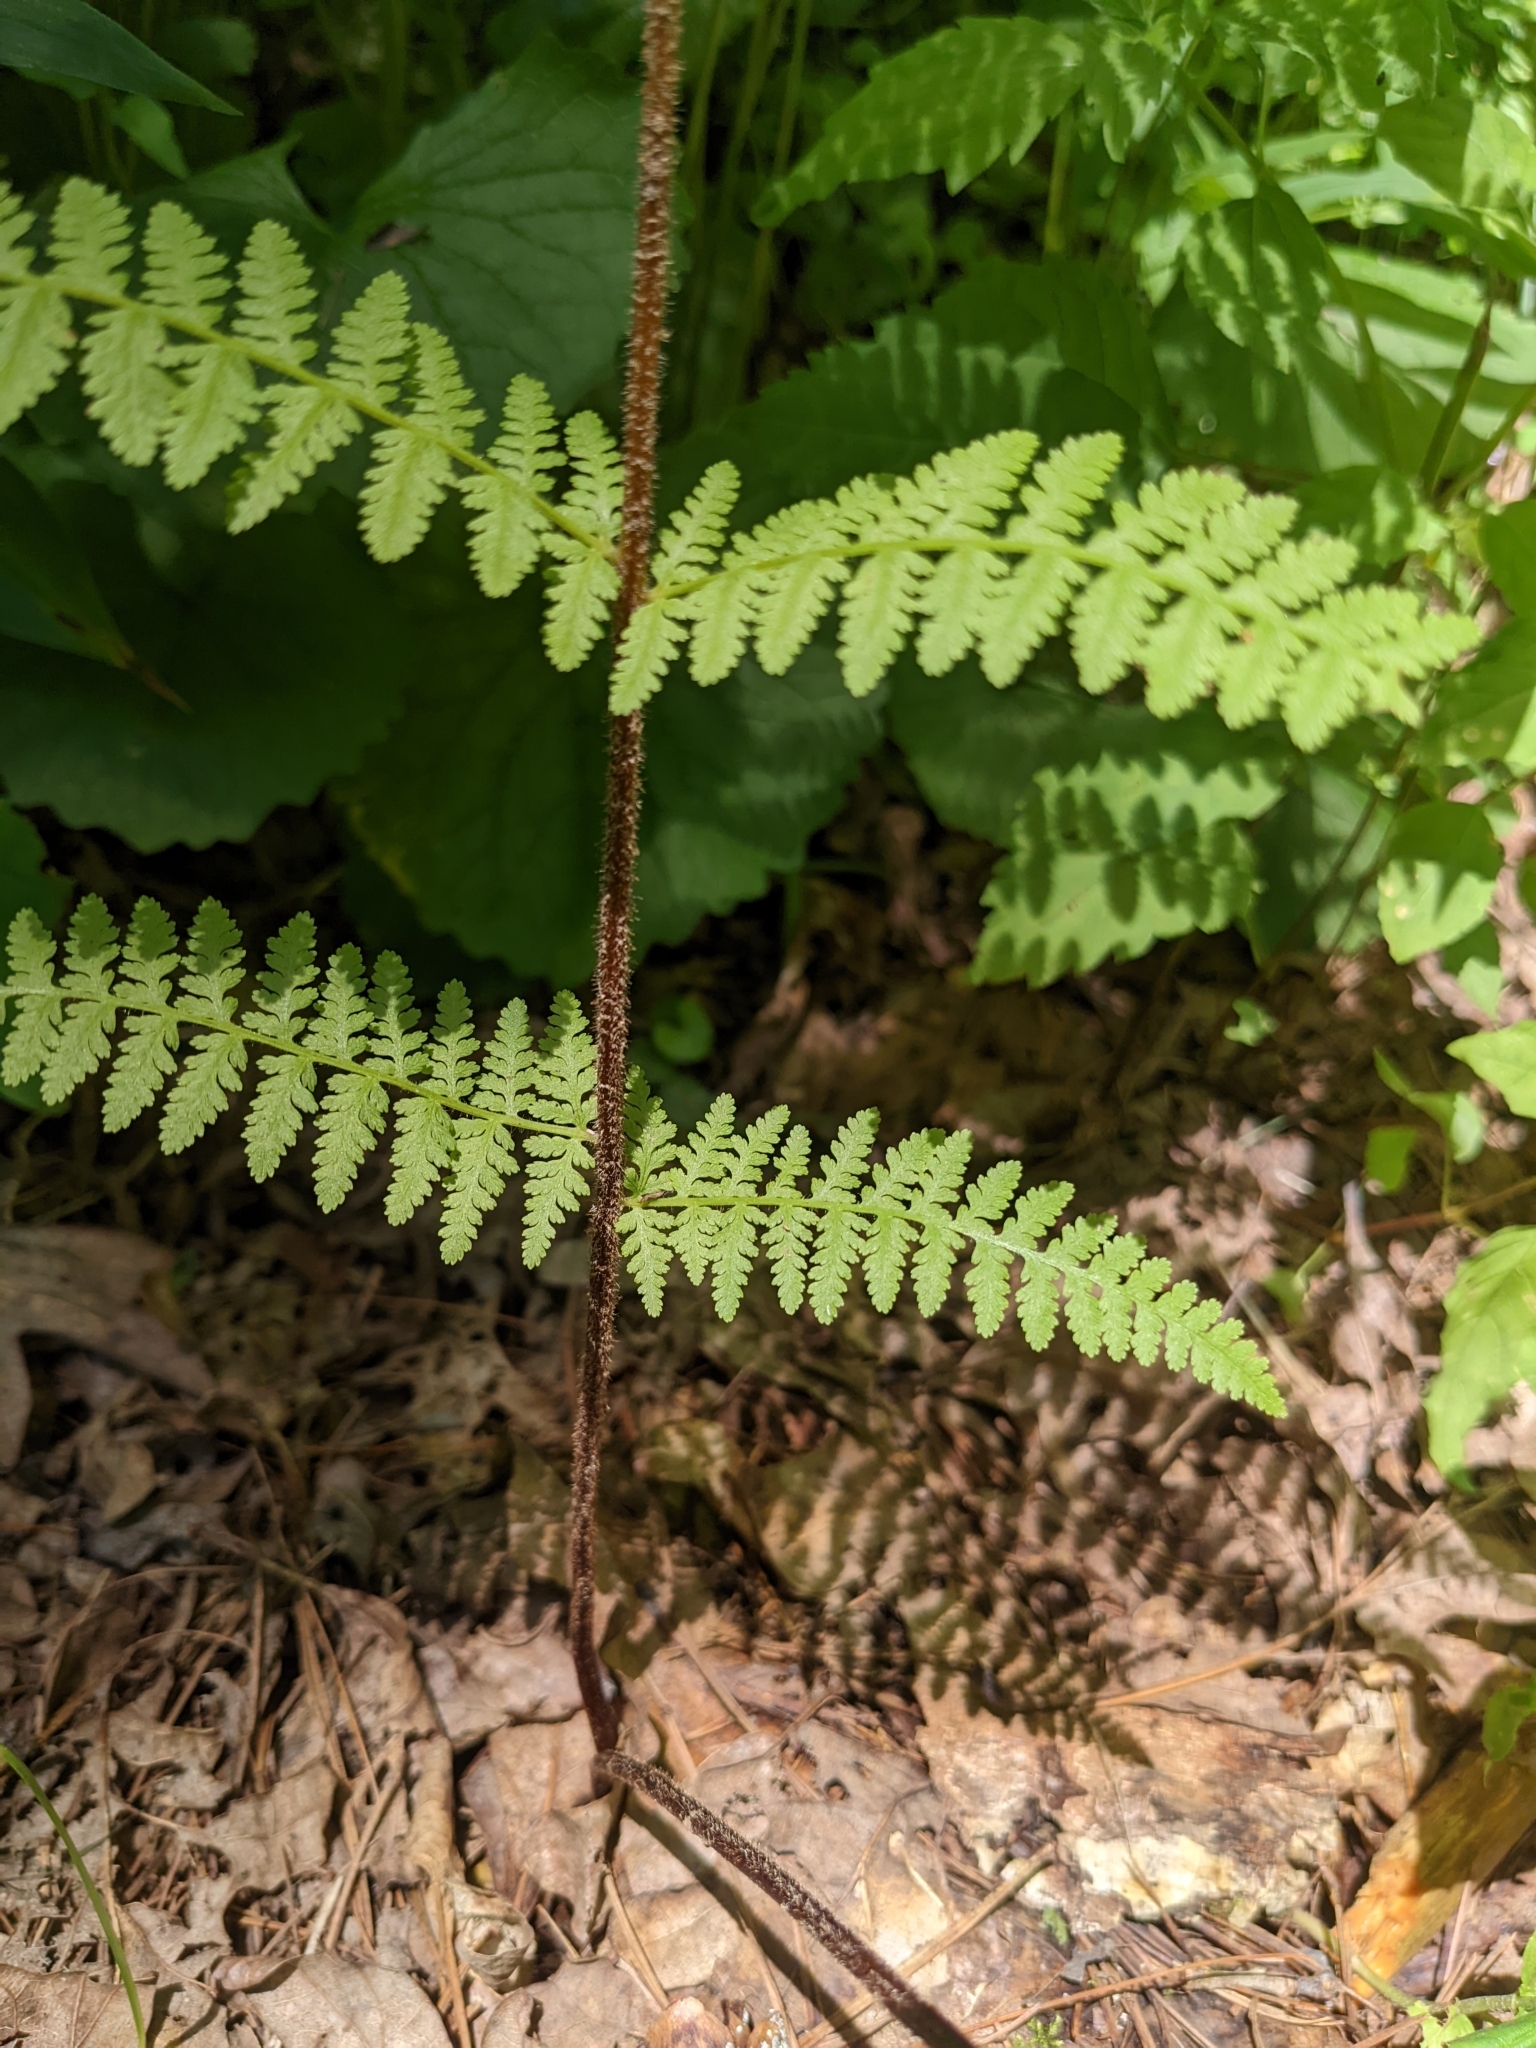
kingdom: Plantae
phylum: Tracheophyta
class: Polypodiopsida
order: Polypodiales
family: Dennstaedtiaceae
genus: Sitobolium
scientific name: Sitobolium punctilobum
